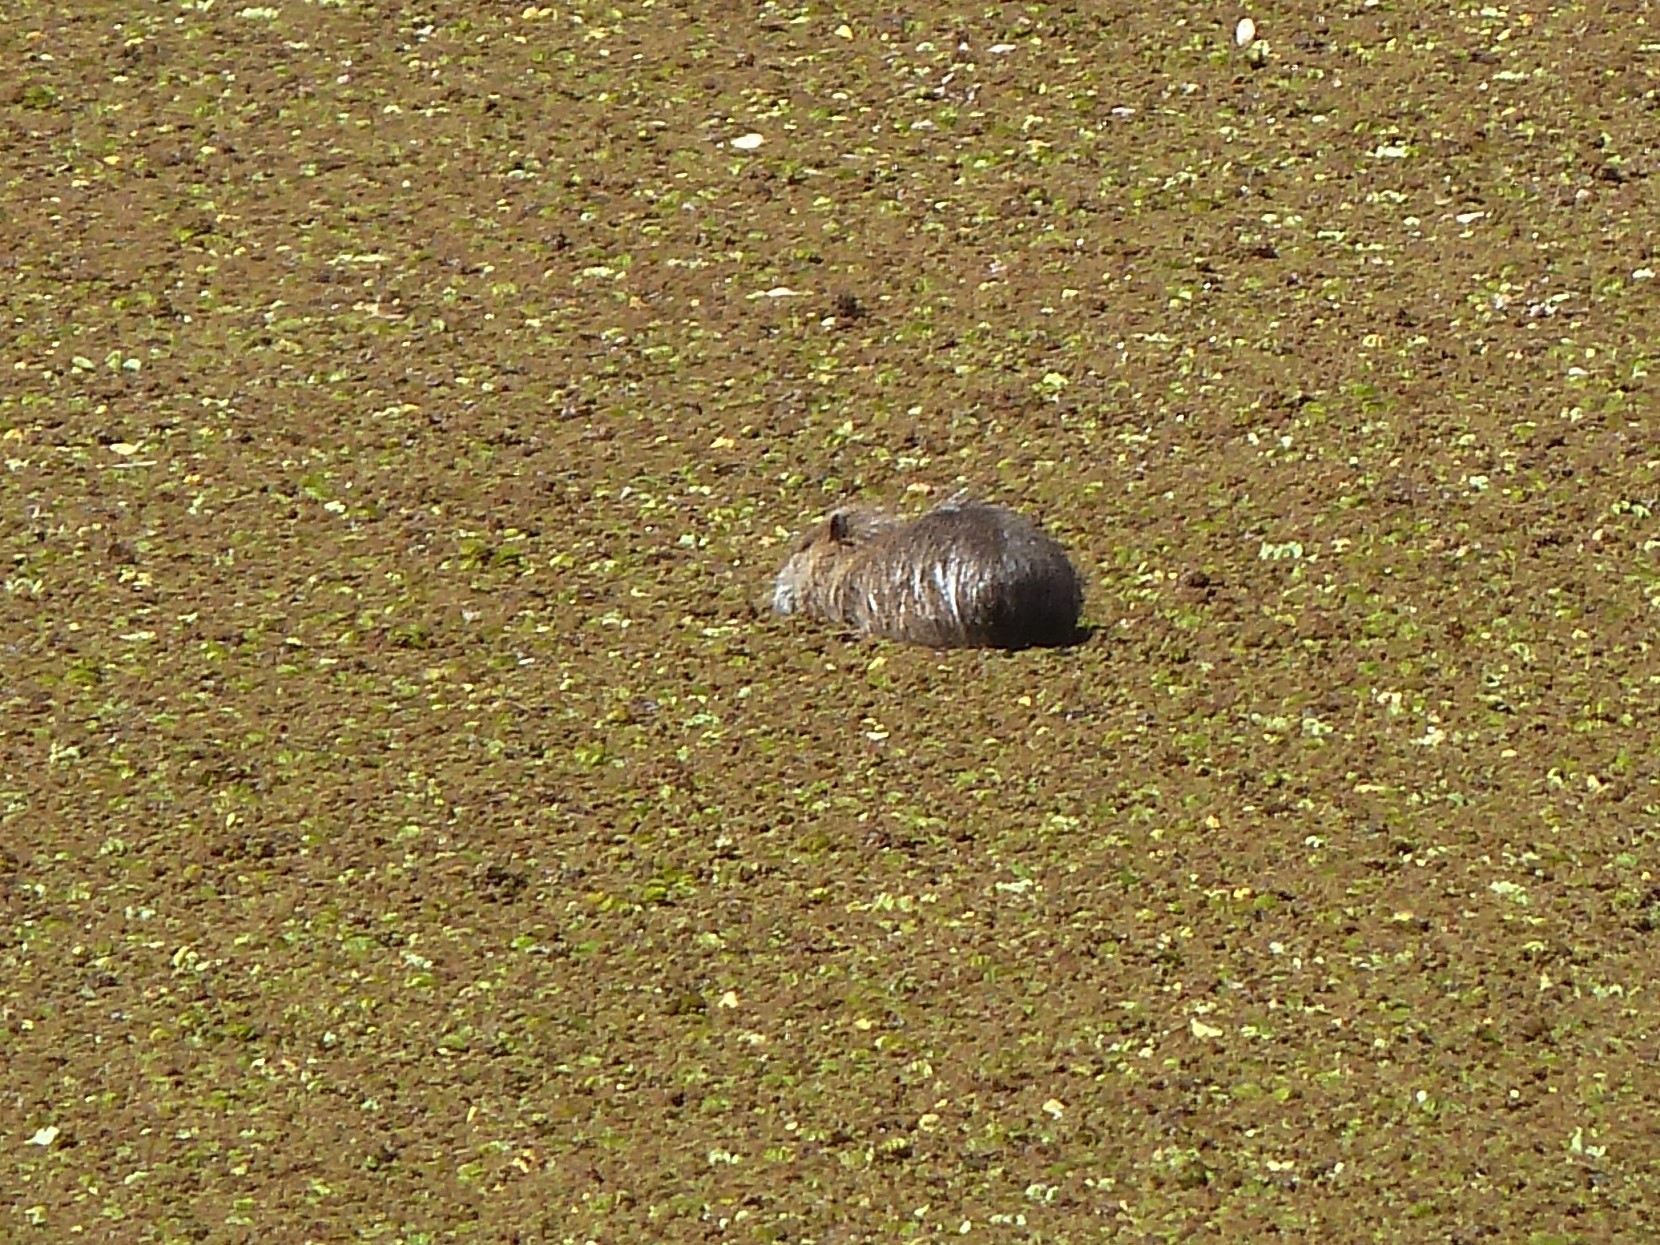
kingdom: Animalia
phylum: Chordata
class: Mammalia
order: Rodentia
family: Myocastoridae
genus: Myocastor
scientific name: Myocastor coypus
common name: Coypu
